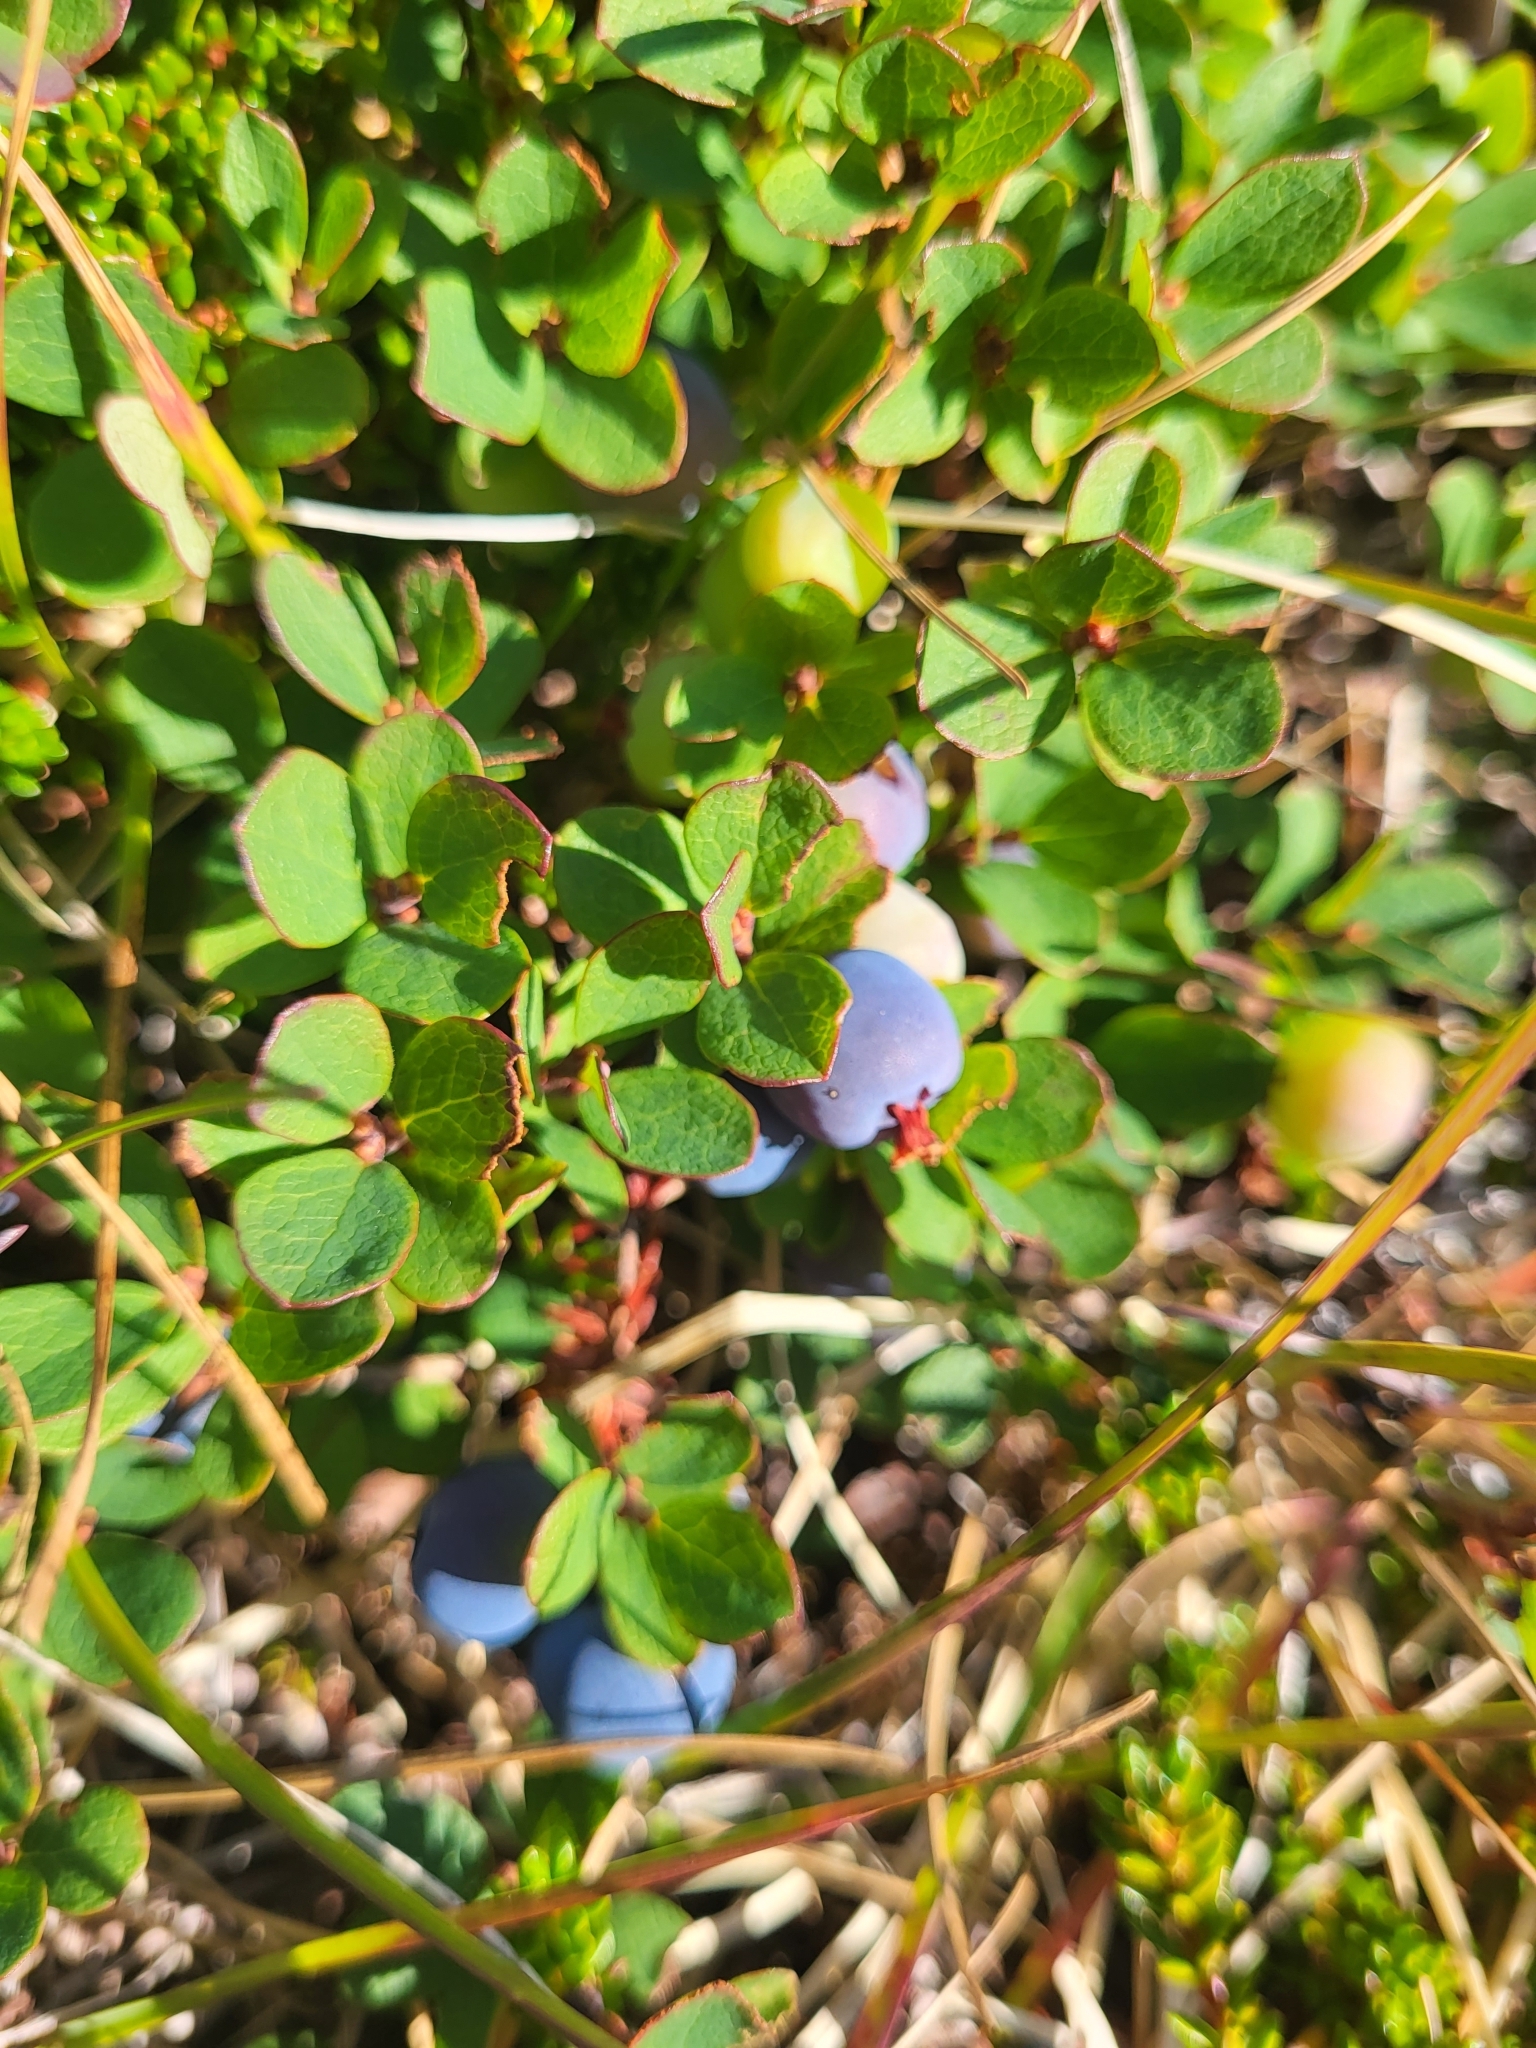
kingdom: Plantae
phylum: Tracheophyta
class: Magnoliopsida
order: Ericales
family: Ericaceae
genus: Vaccinium
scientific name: Vaccinium uliginosum
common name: Bog bilberry
